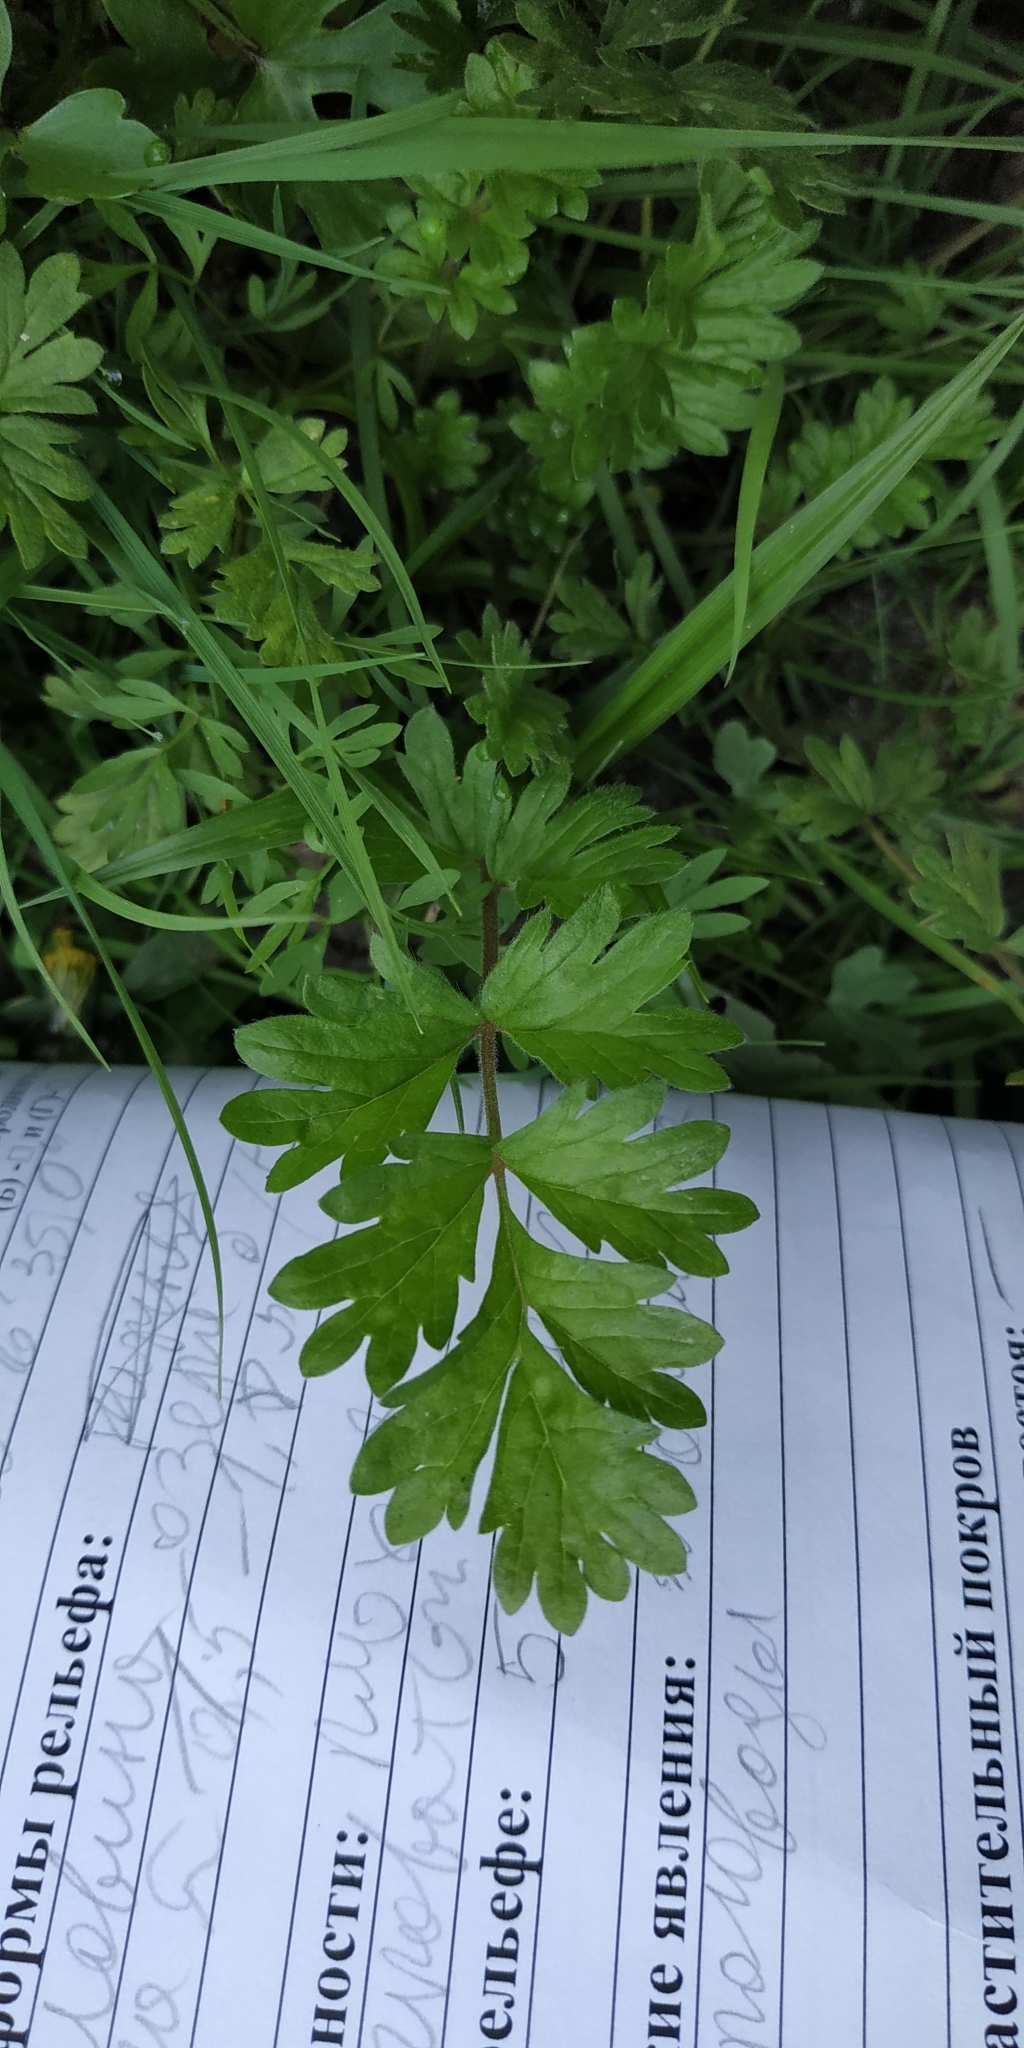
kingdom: Plantae
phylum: Tracheophyta
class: Magnoliopsida
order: Rosales
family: Rosaceae
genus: Potentilla
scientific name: Potentilla supina
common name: Prostrate cinquefoil
